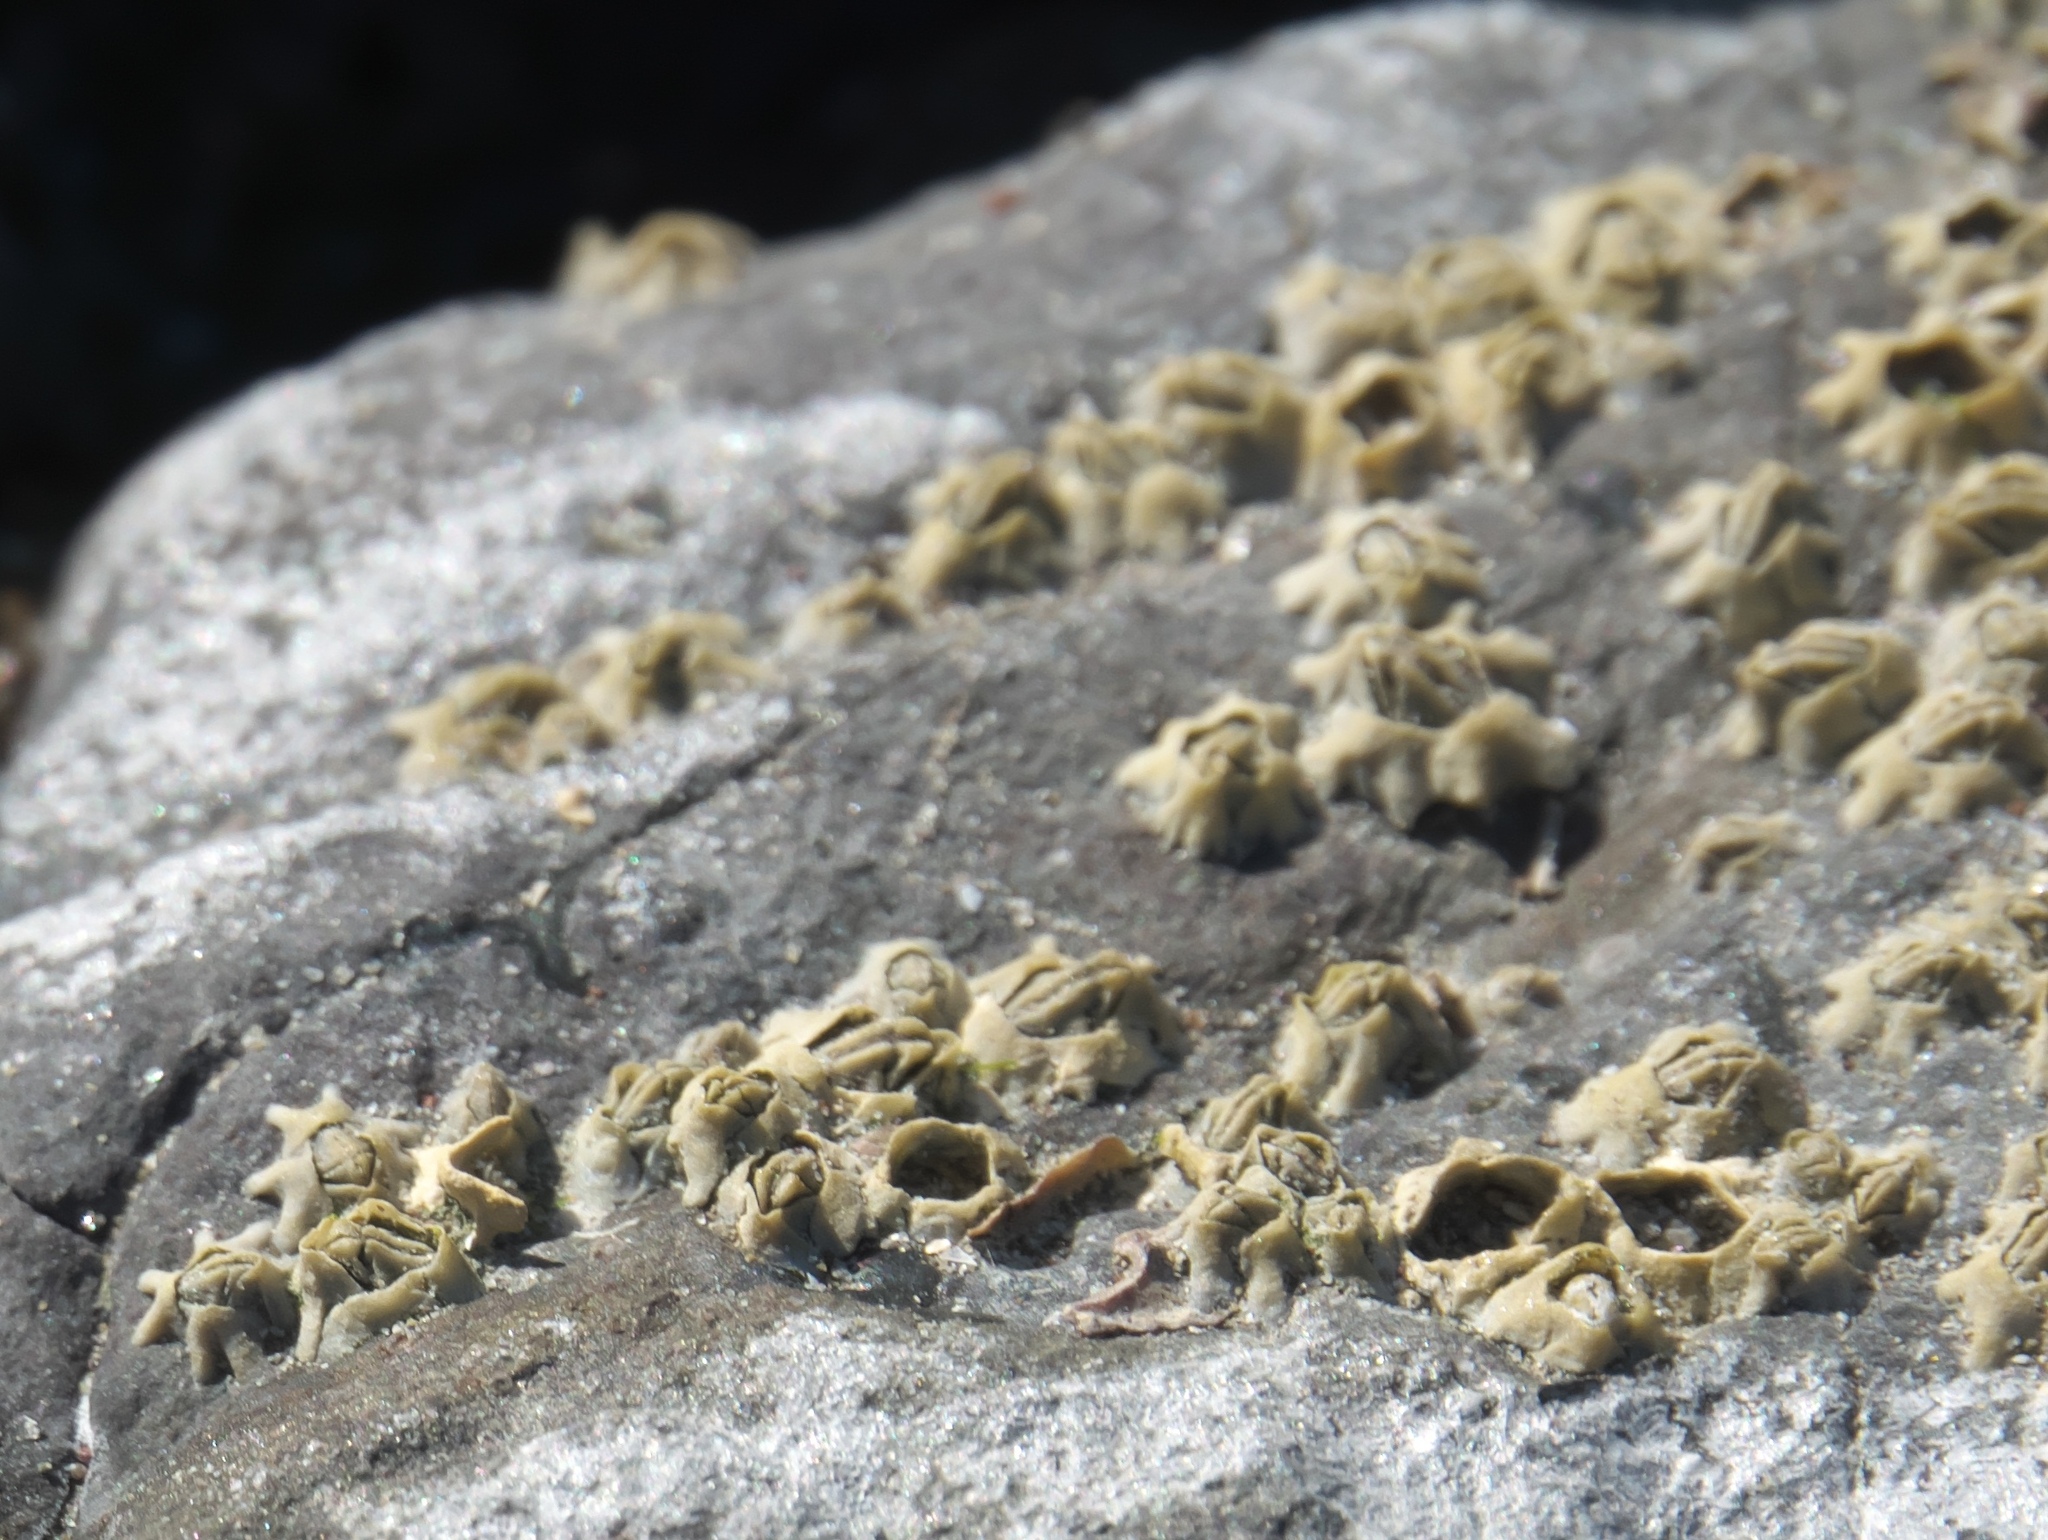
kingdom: Animalia
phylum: Arthropoda
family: Elminiidae
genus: Austrominius
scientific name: Austrominius modestus
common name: Australasian barnacle
